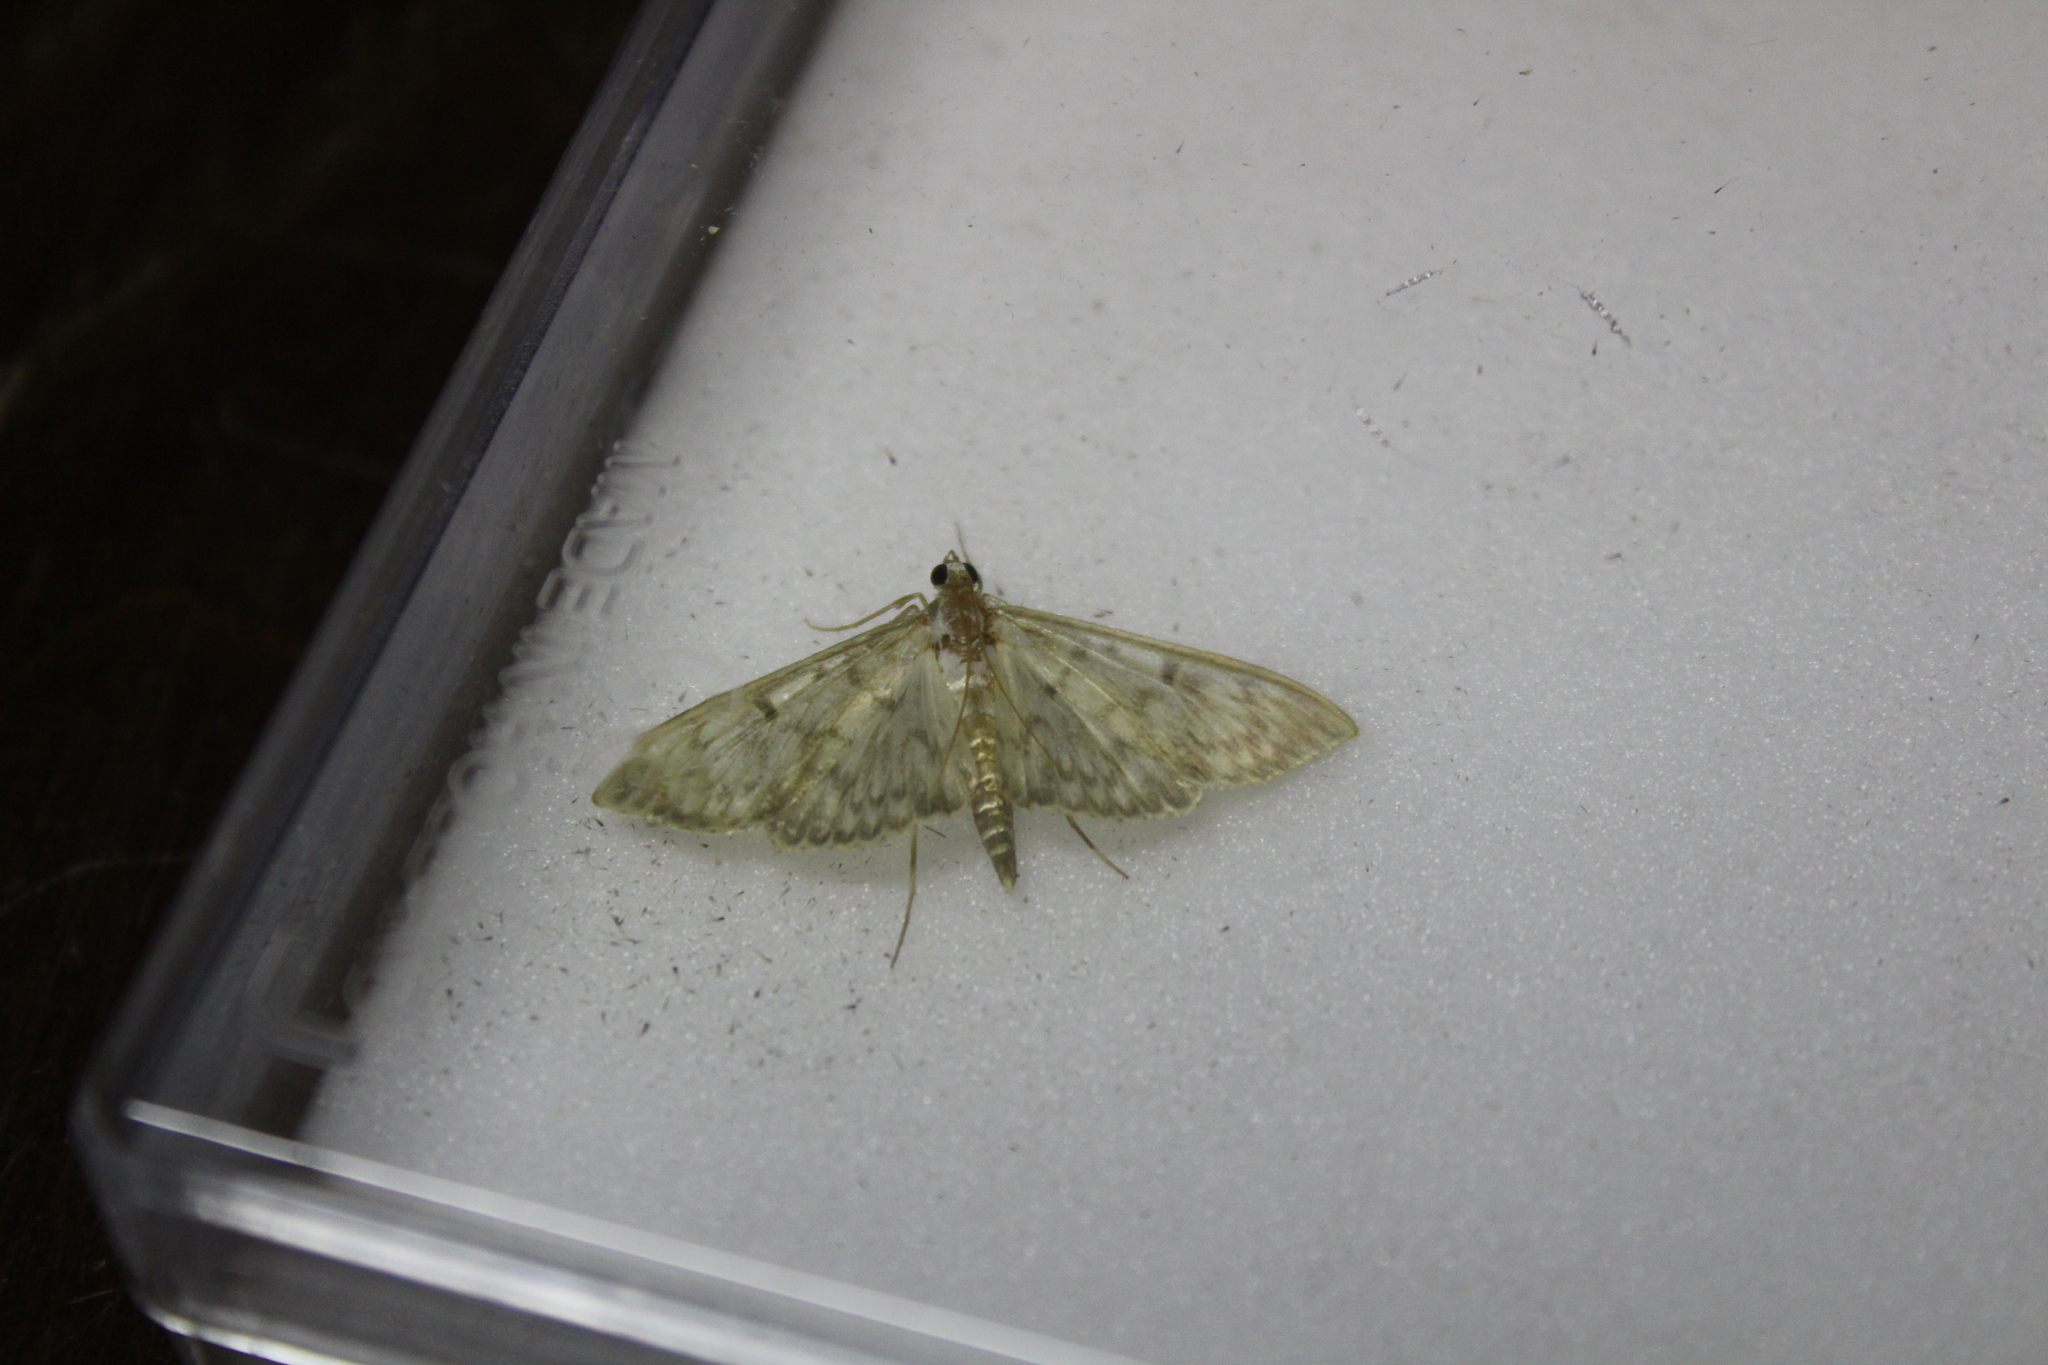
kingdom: Animalia
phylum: Arthropoda
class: Insecta
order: Lepidoptera
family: Crambidae
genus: Patania
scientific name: Patania ruralis
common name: Mother of pearl
